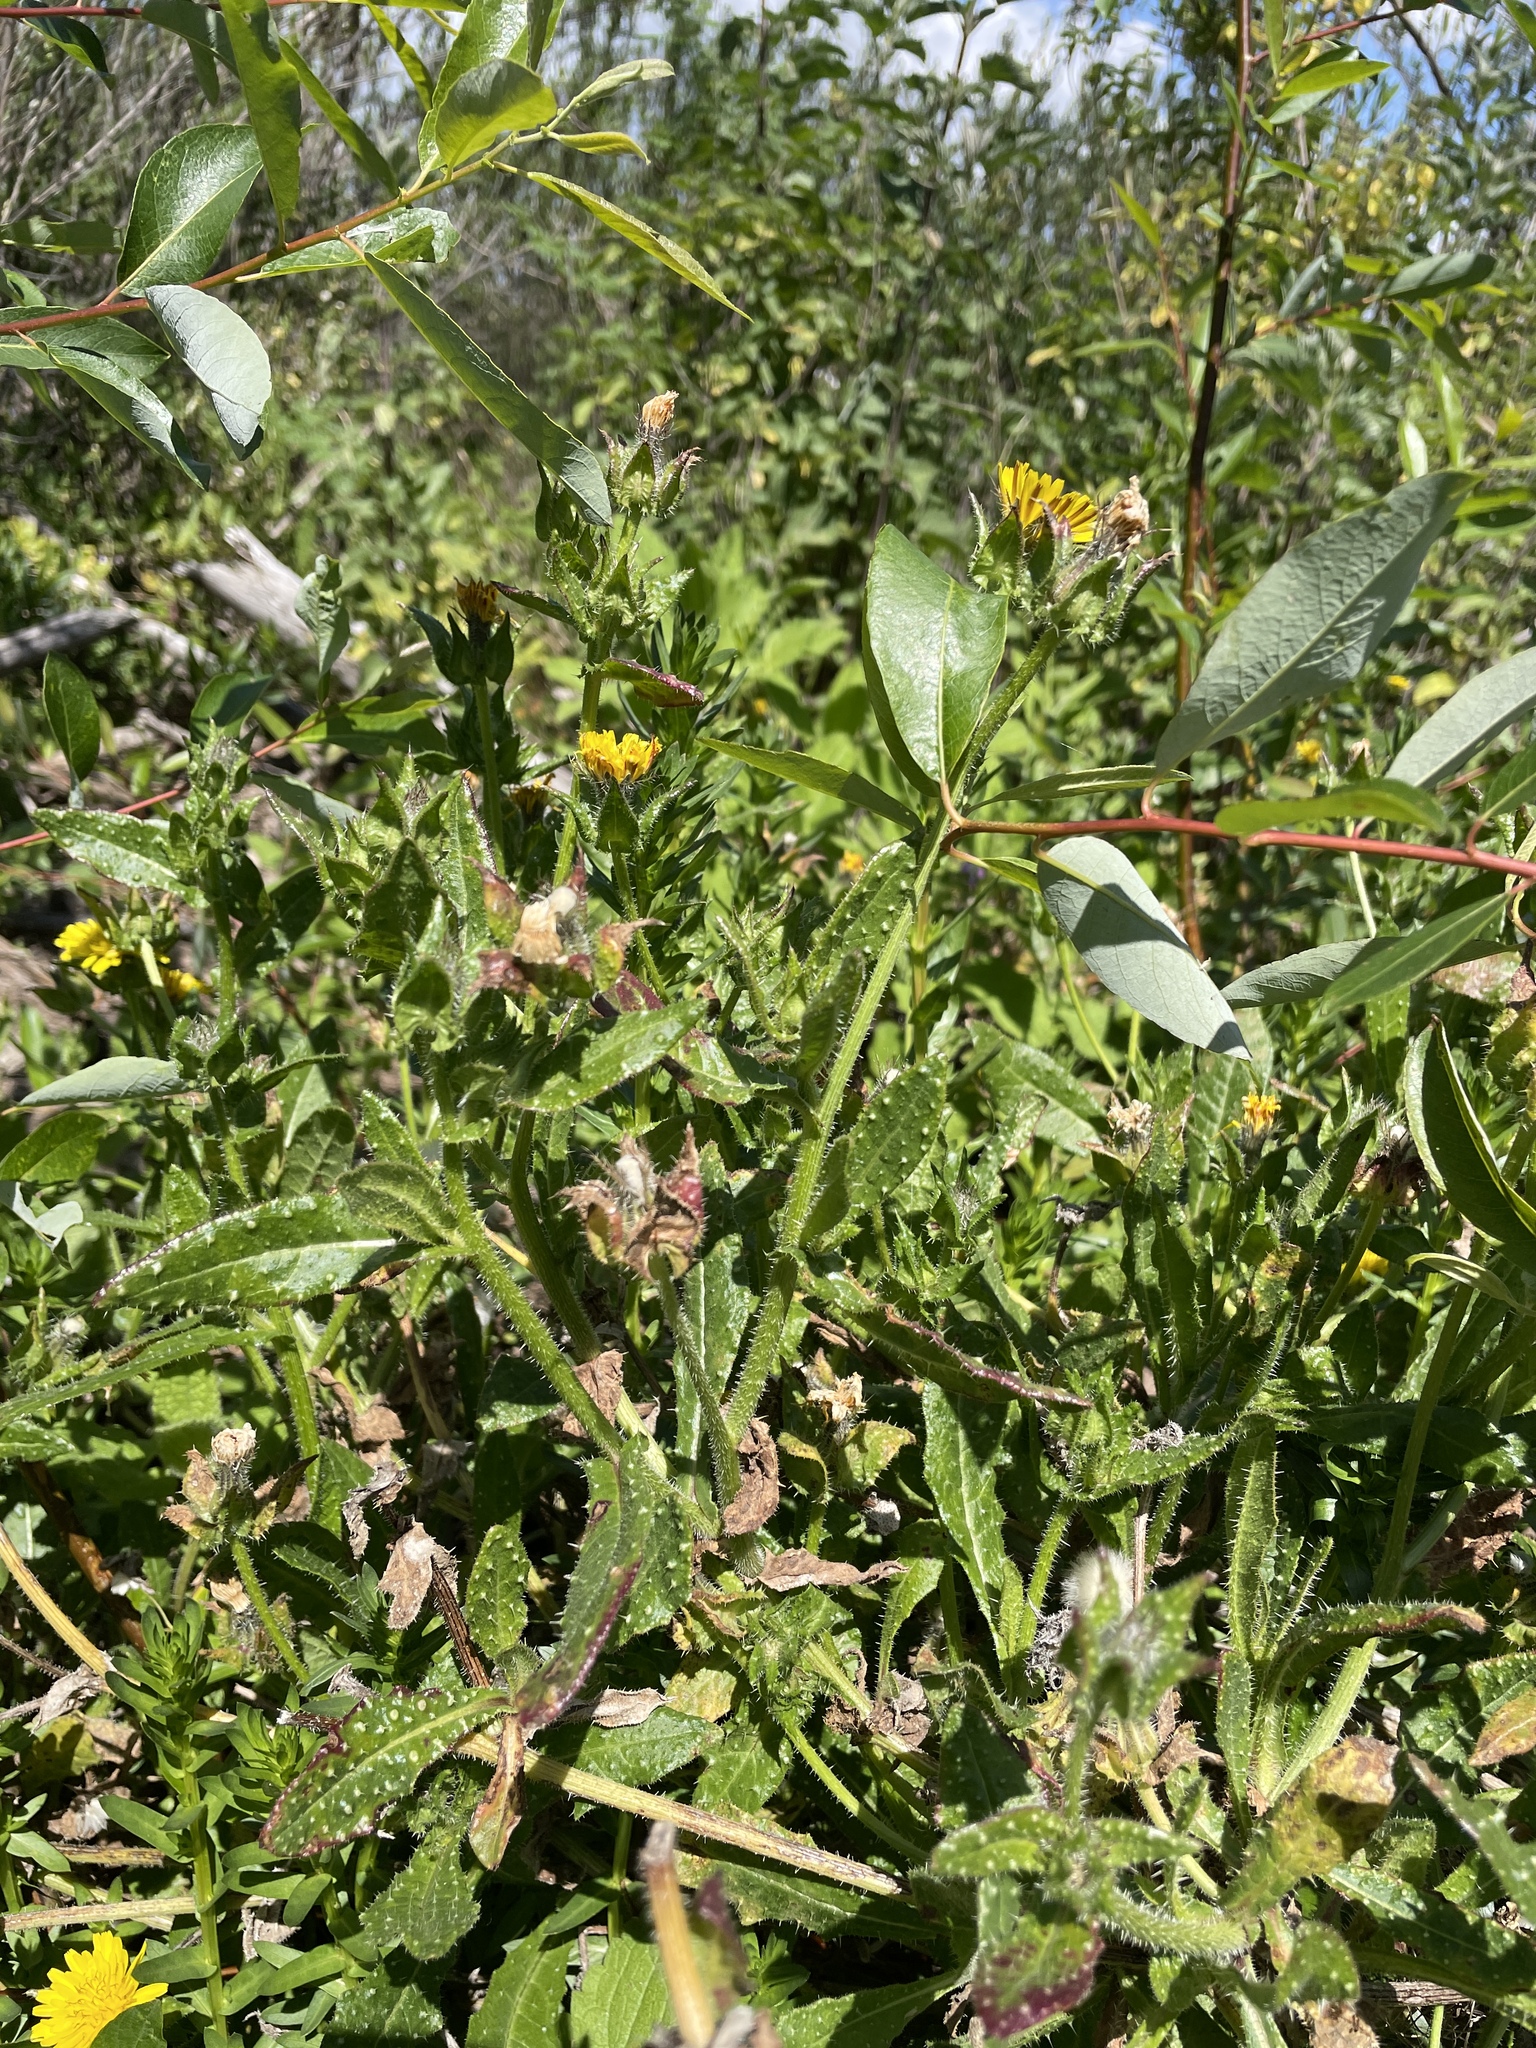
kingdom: Plantae
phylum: Tracheophyta
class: Magnoliopsida
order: Asterales
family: Asteraceae
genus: Helminthotheca
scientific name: Helminthotheca echioides
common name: Ox-tongue
